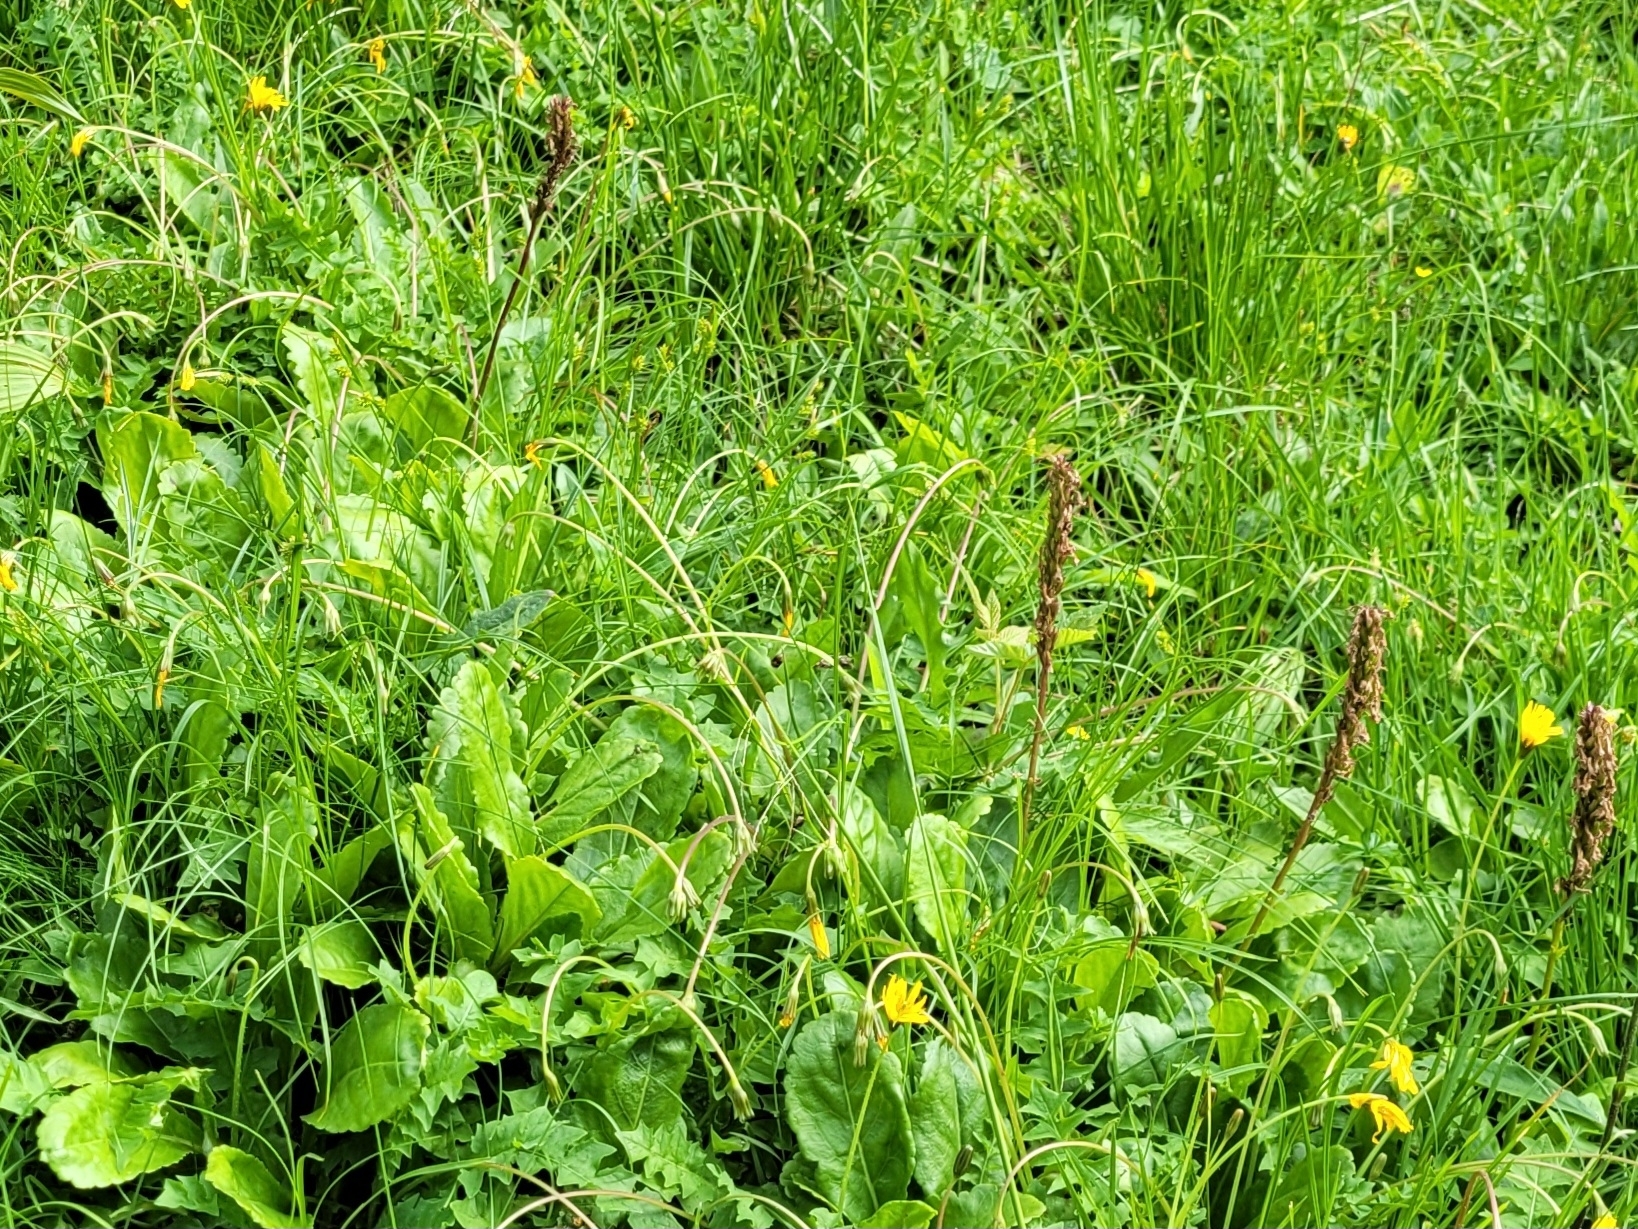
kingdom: Plantae
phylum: Tracheophyta
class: Magnoliopsida
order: Lamiales
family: Plantaginaceae
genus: Wulfenia
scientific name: Wulfenia carinthiaca
